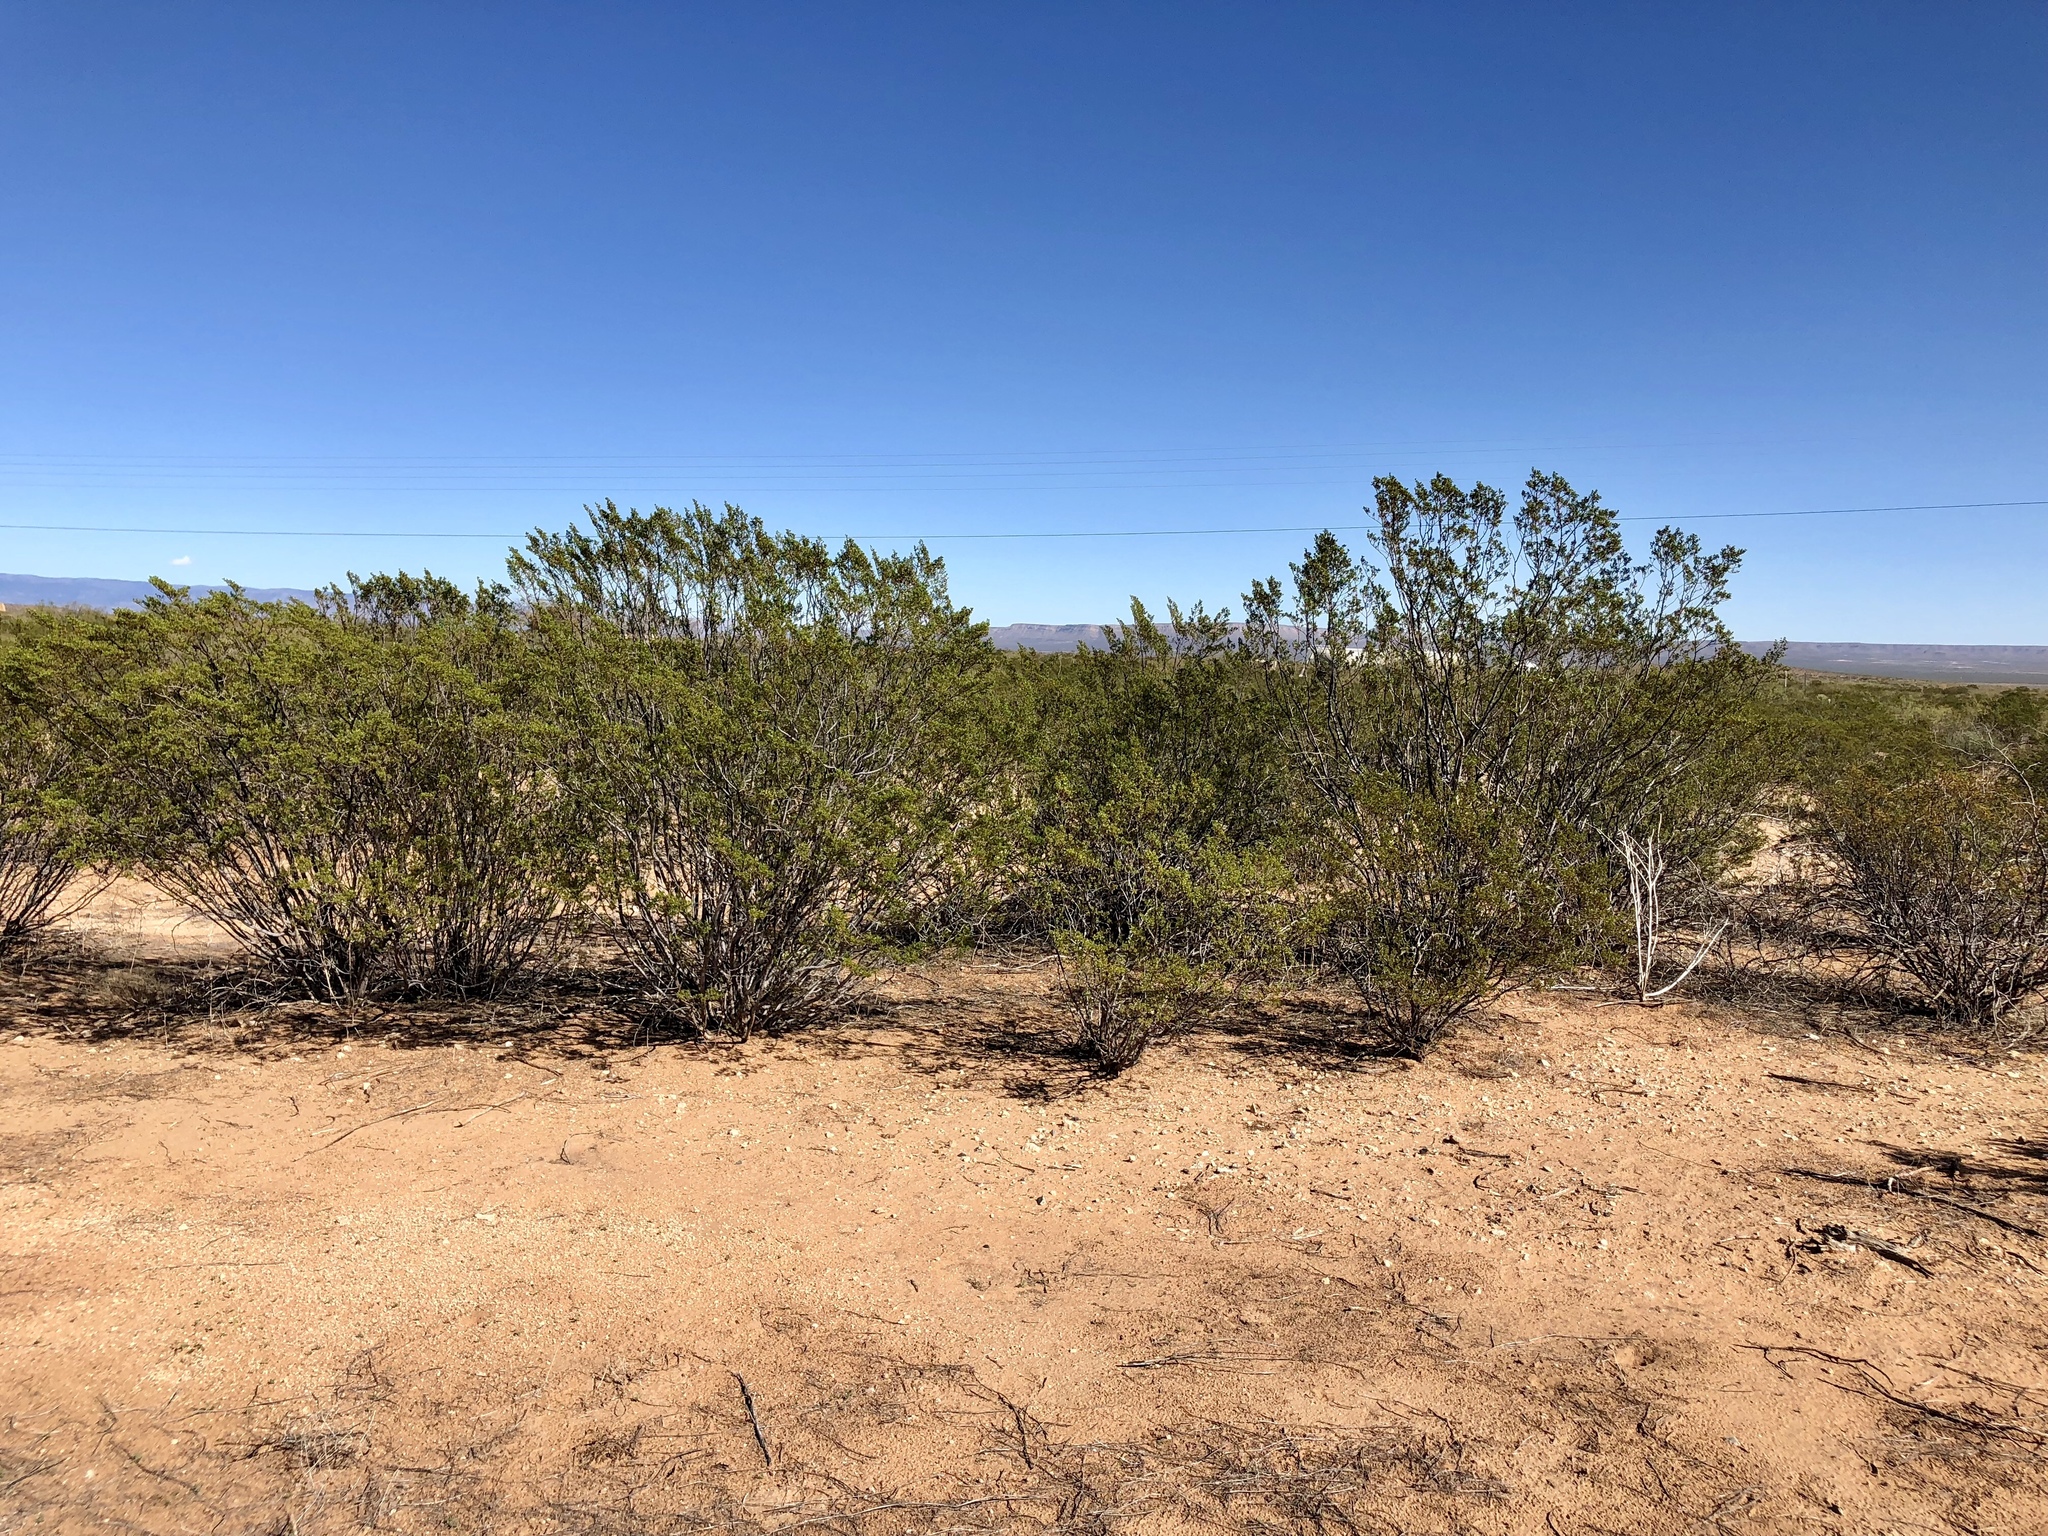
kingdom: Plantae
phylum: Tracheophyta
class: Magnoliopsida
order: Zygophyllales
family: Zygophyllaceae
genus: Larrea
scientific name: Larrea tridentata
